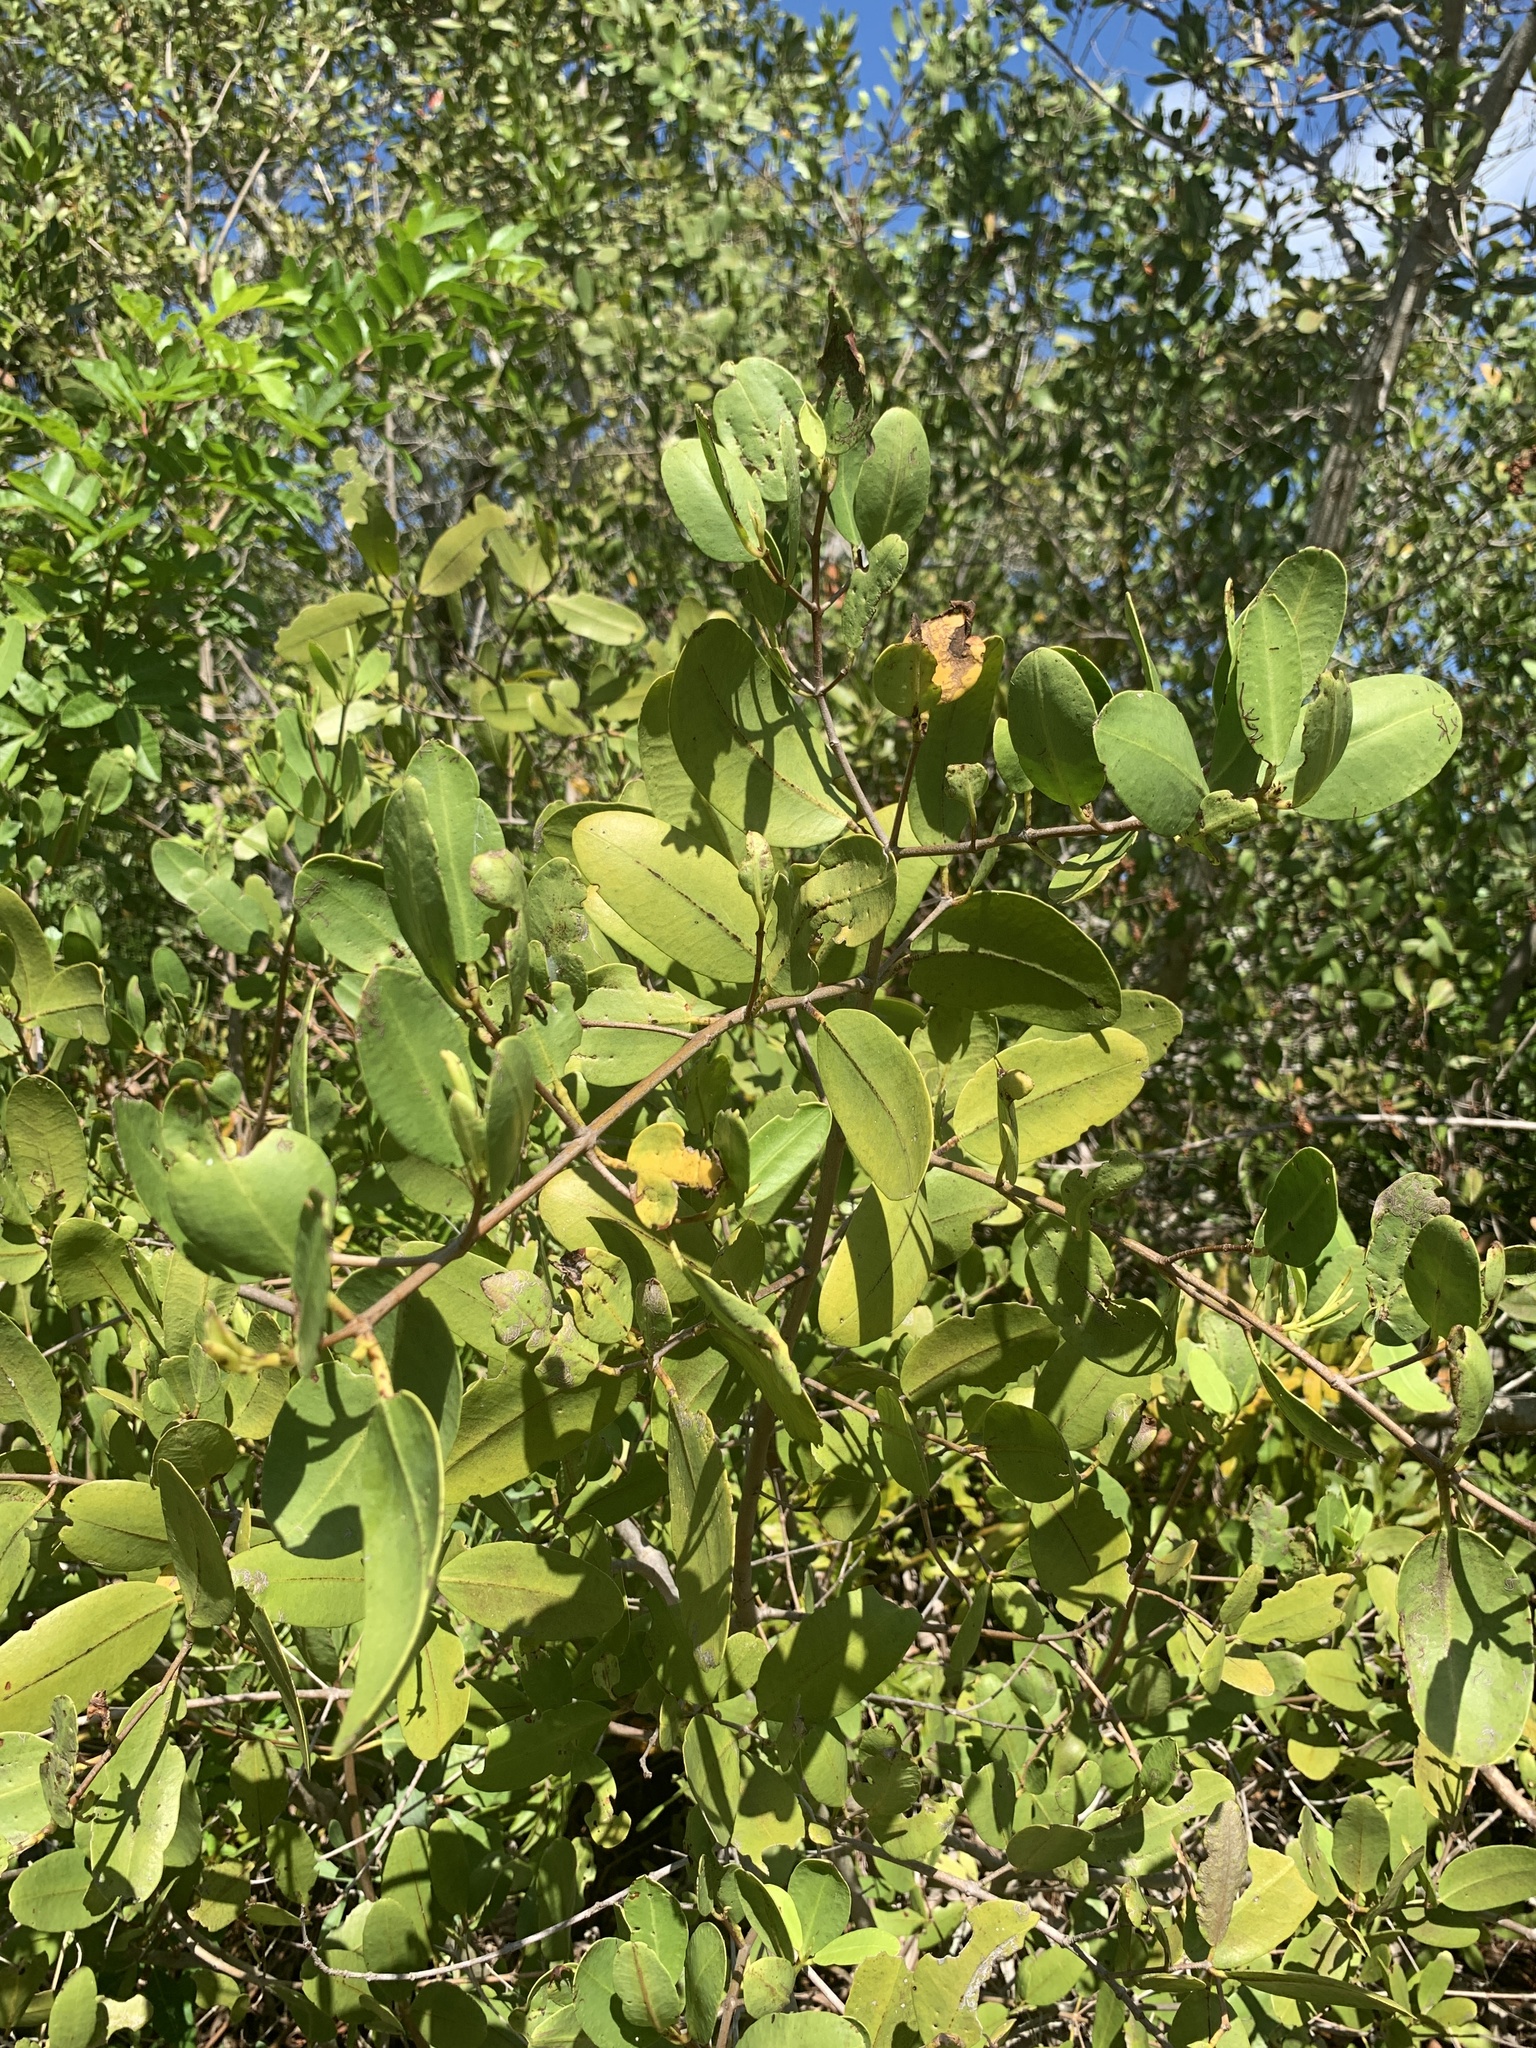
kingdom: Plantae
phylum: Tracheophyta
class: Magnoliopsida
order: Myrtales
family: Combretaceae
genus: Laguncularia
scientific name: Laguncularia racemosa
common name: White mangrove
